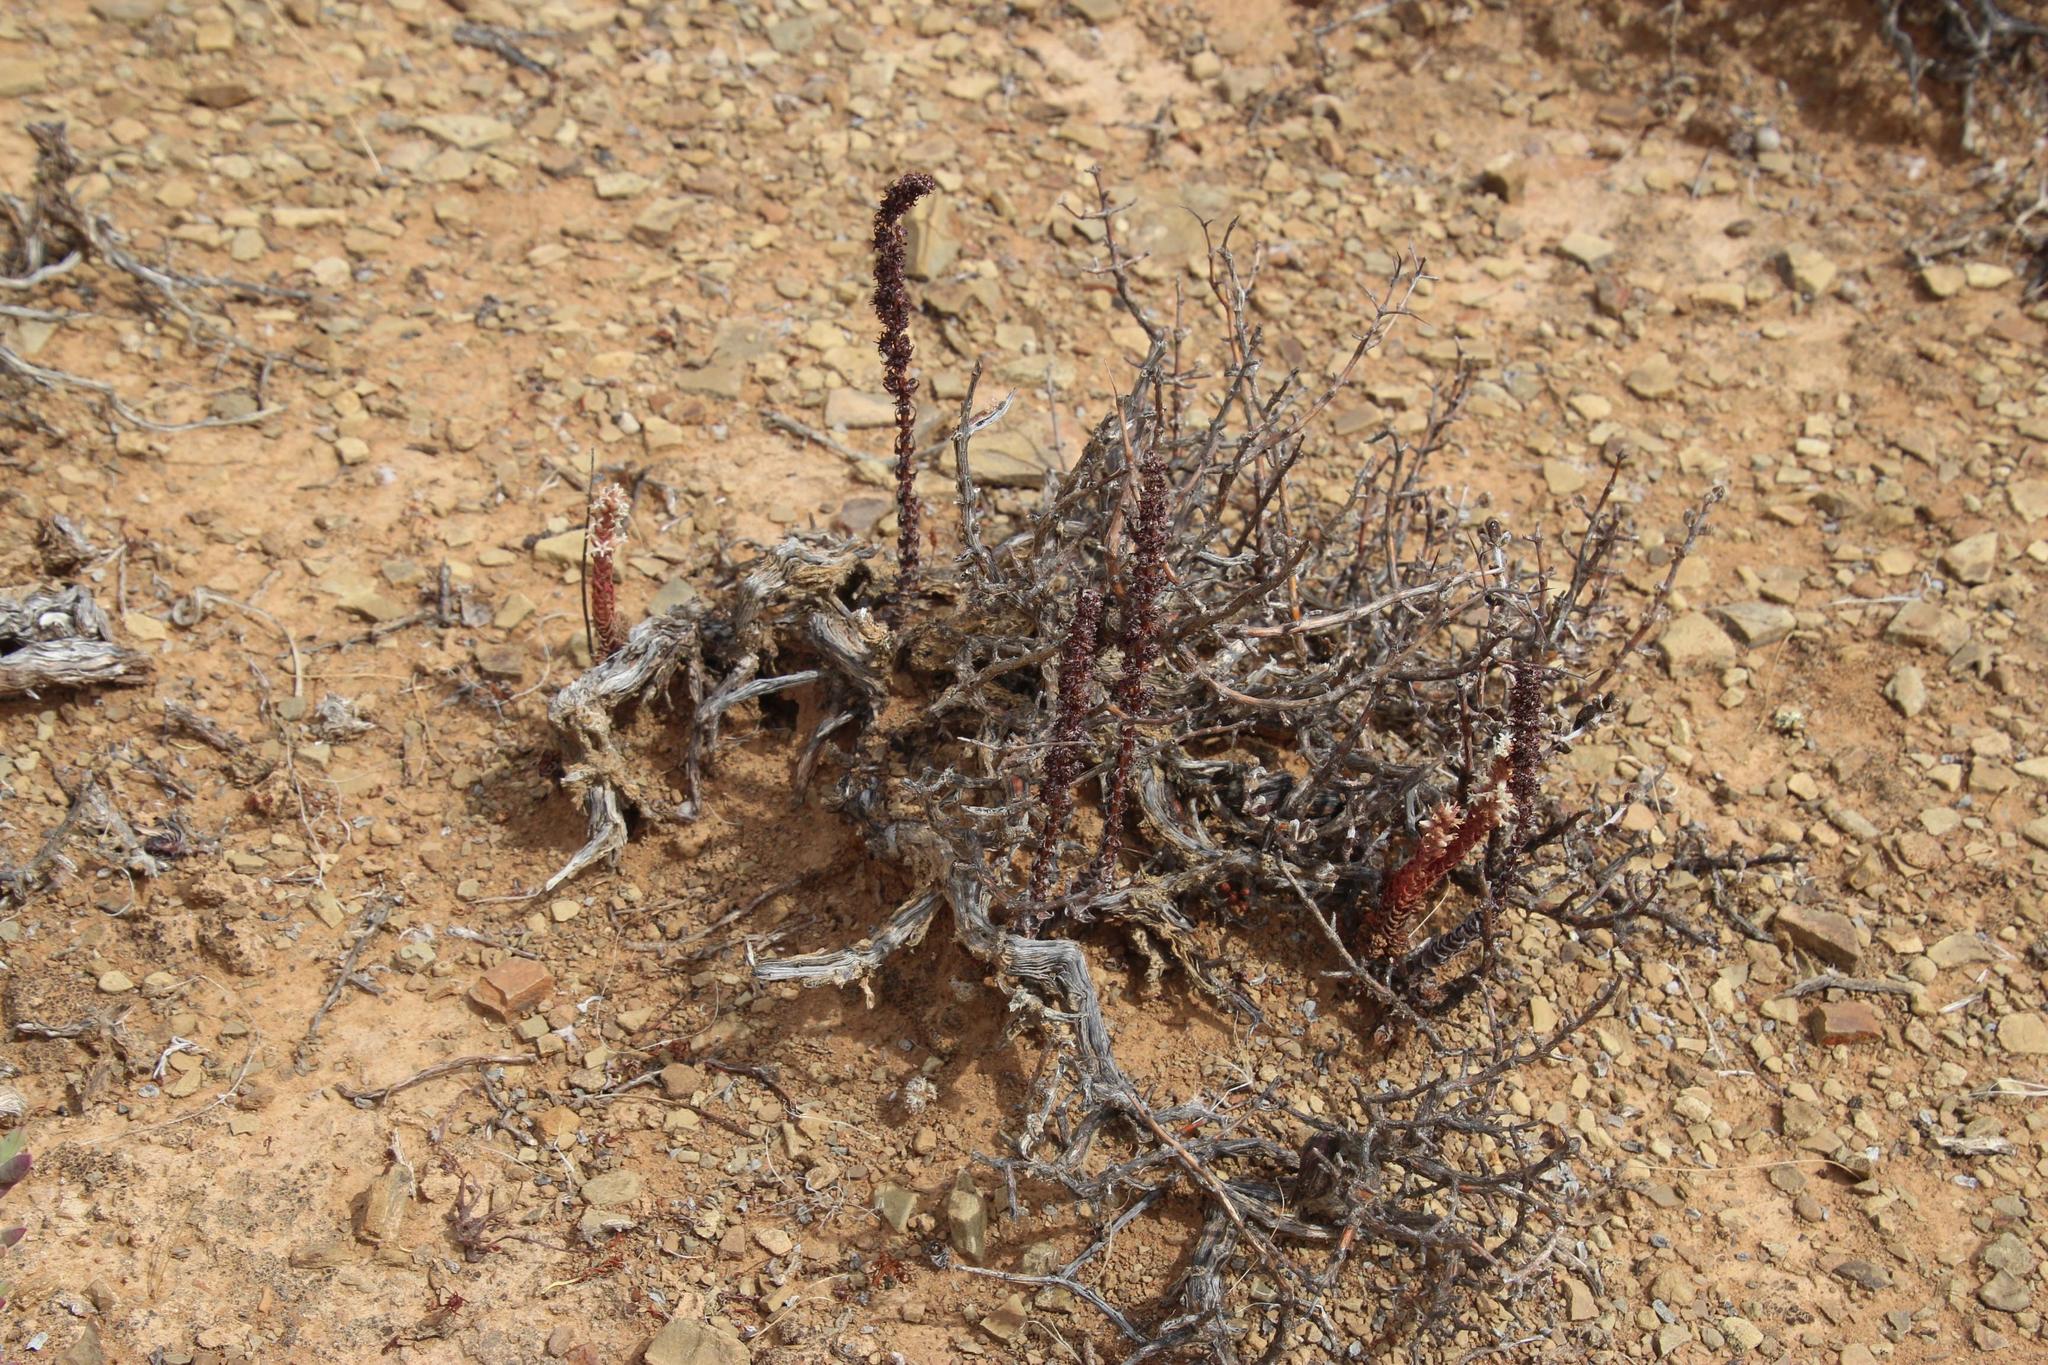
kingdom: Plantae
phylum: Tracheophyta
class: Magnoliopsida
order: Saxifragales
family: Crassulaceae
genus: Crassula
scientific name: Crassula alpestris
